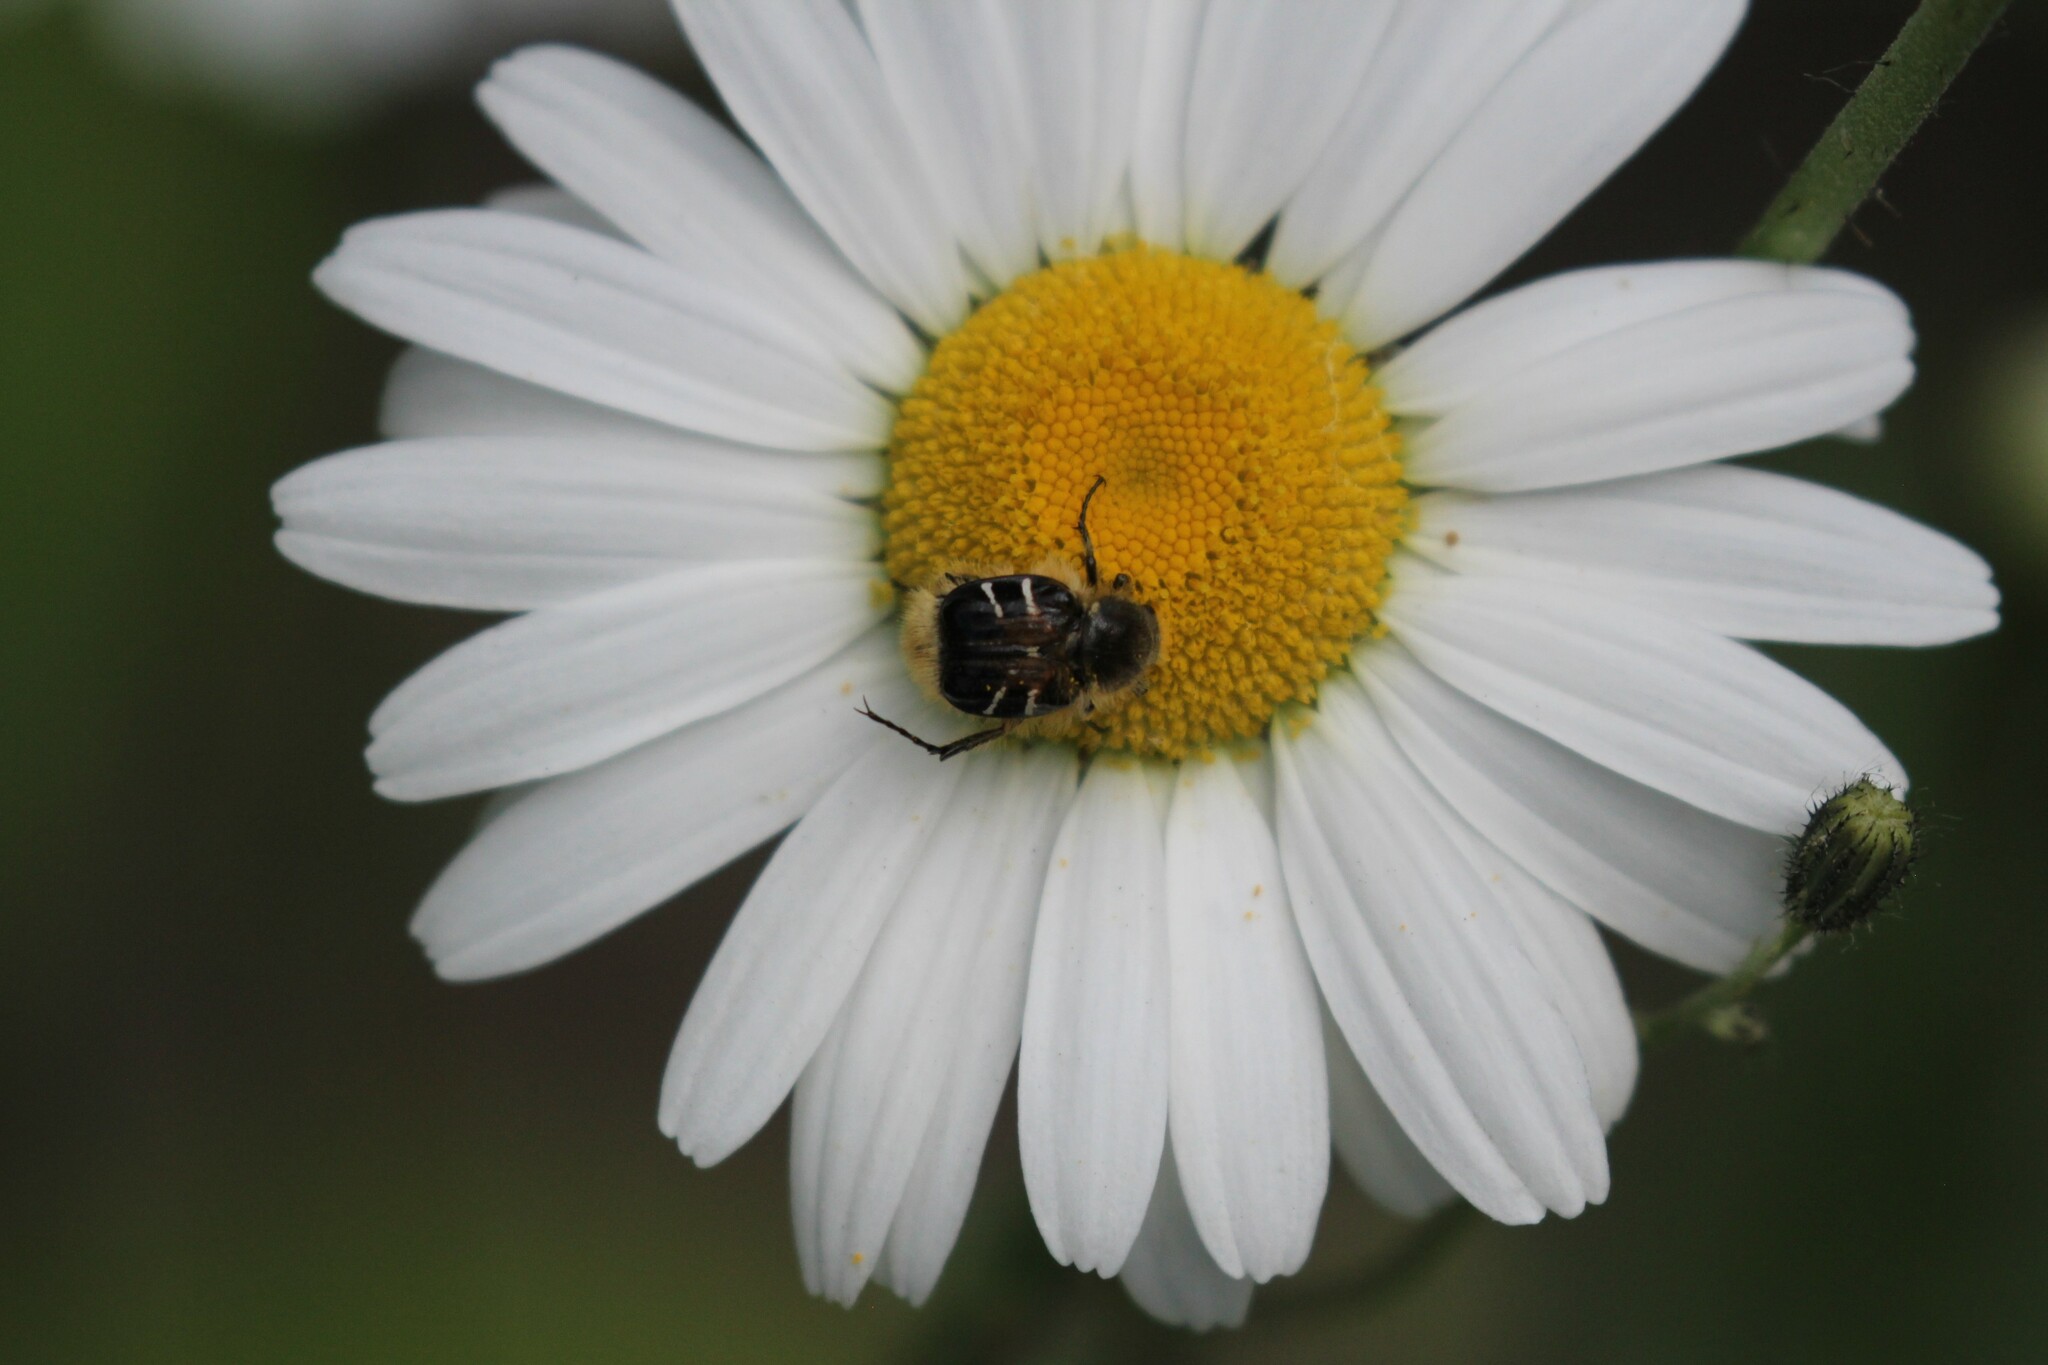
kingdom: Animalia
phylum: Arthropoda
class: Insecta
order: Coleoptera
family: Scarabaeidae
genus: Trichiotinus
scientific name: Trichiotinus assimilis
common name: Bee-mimic beetle
